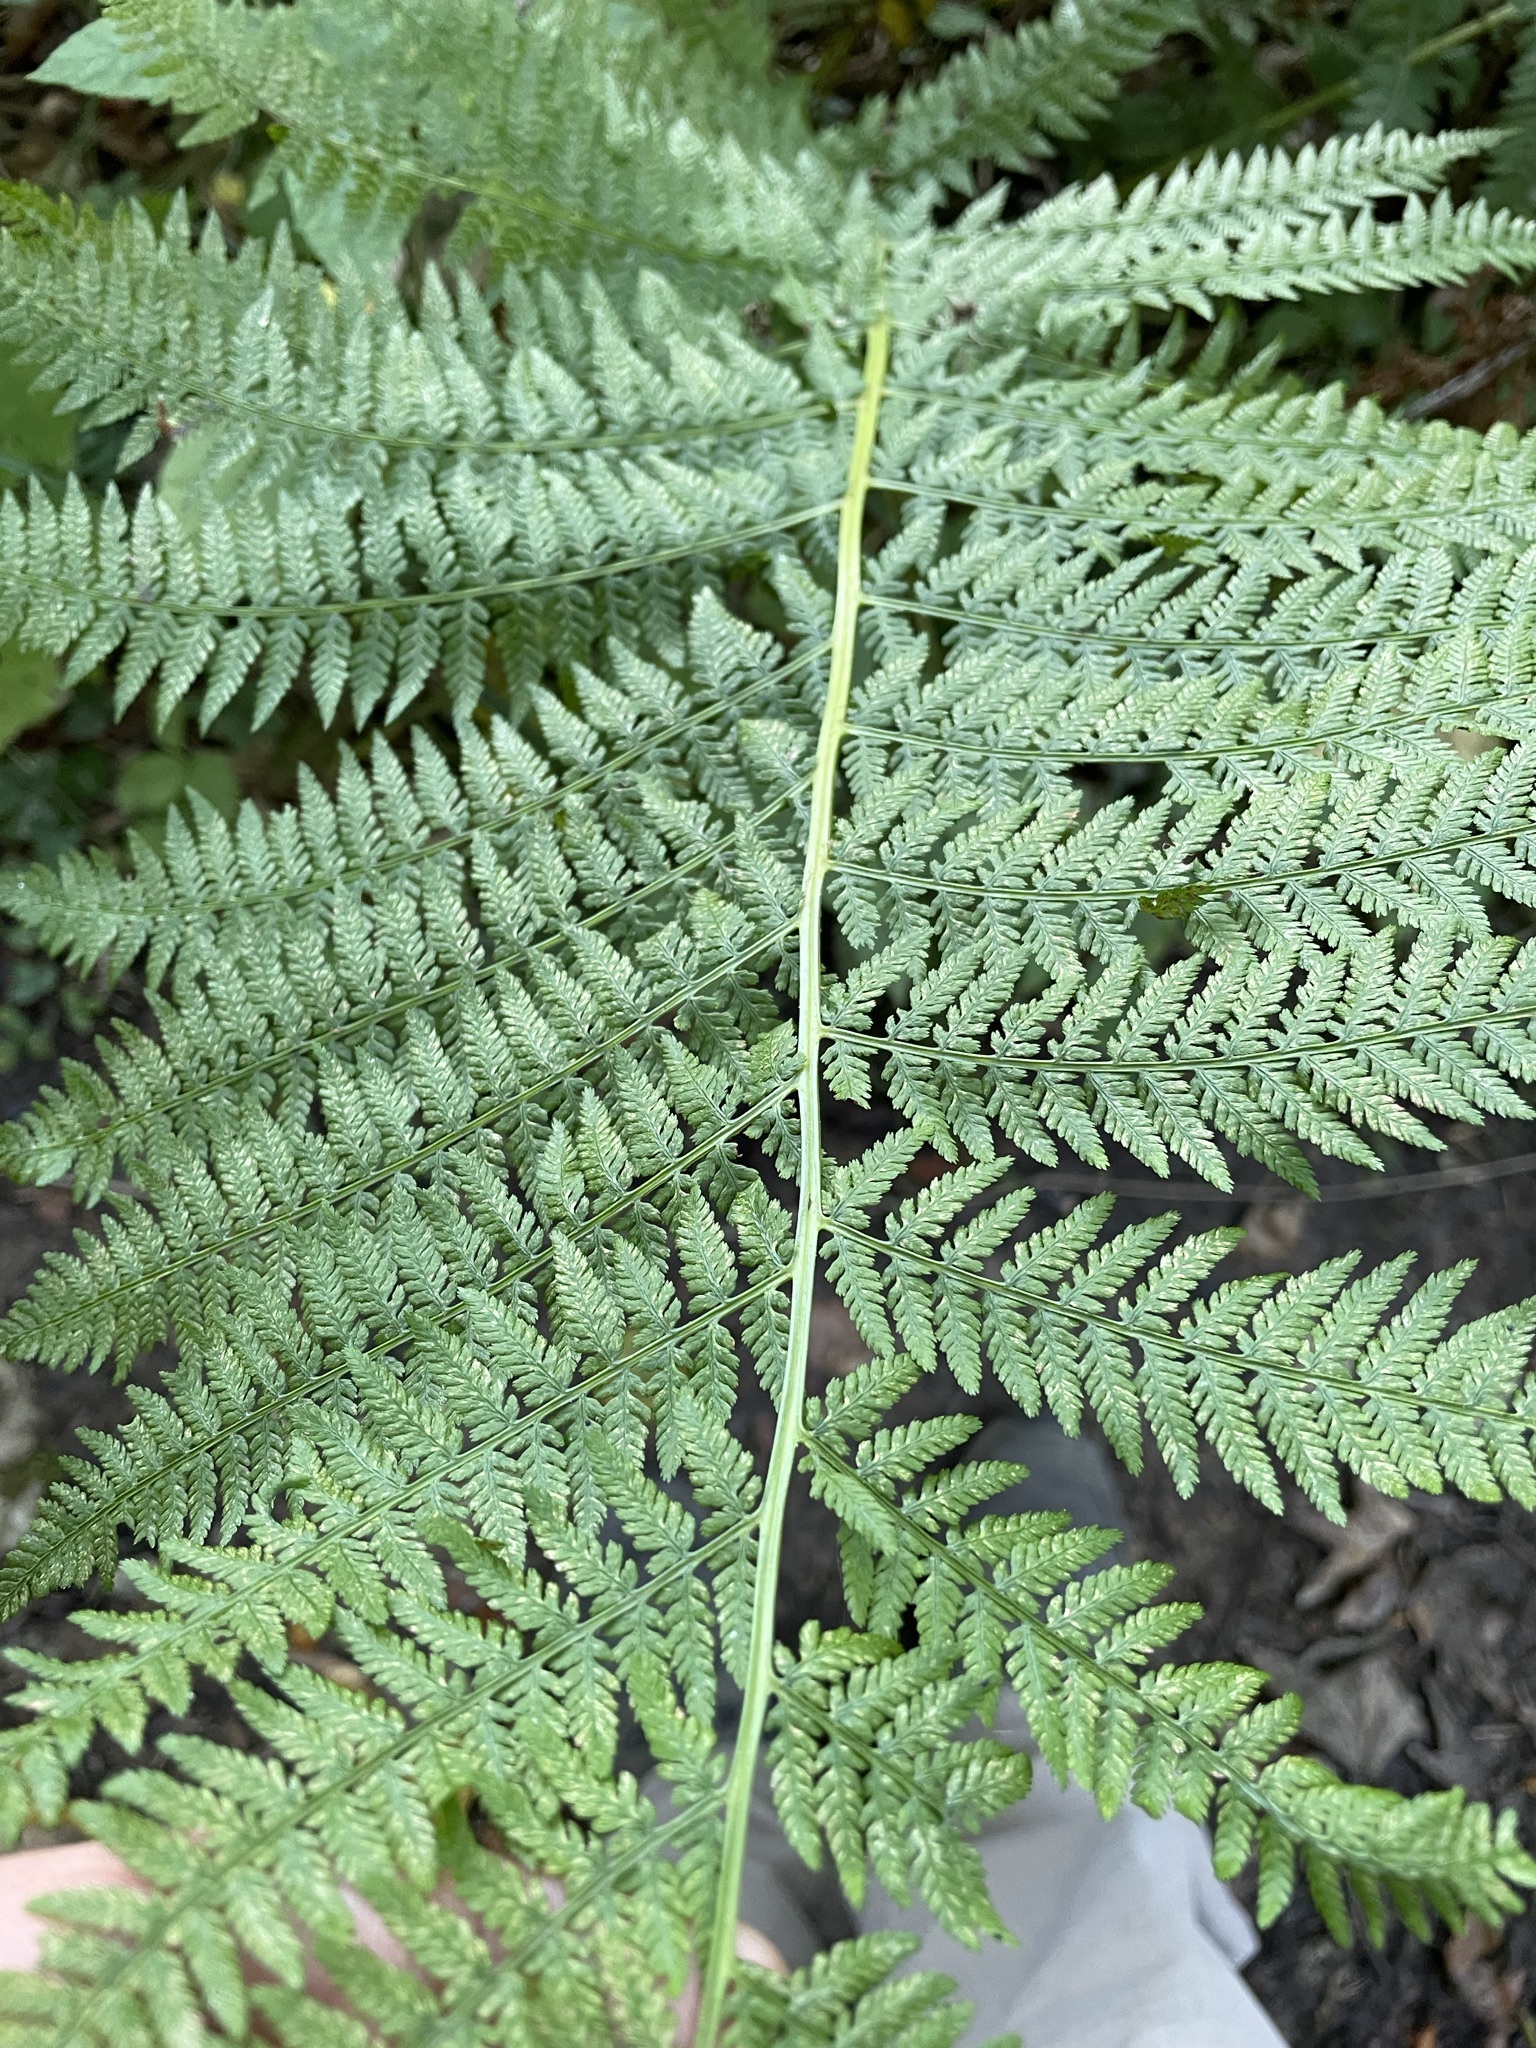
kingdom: Plantae
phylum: Tracheophyta
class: Polypodiopsida
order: Polypodiales
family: Athyriaceae
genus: Athyrium
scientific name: Athyrium filix-femina
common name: Lady fern
